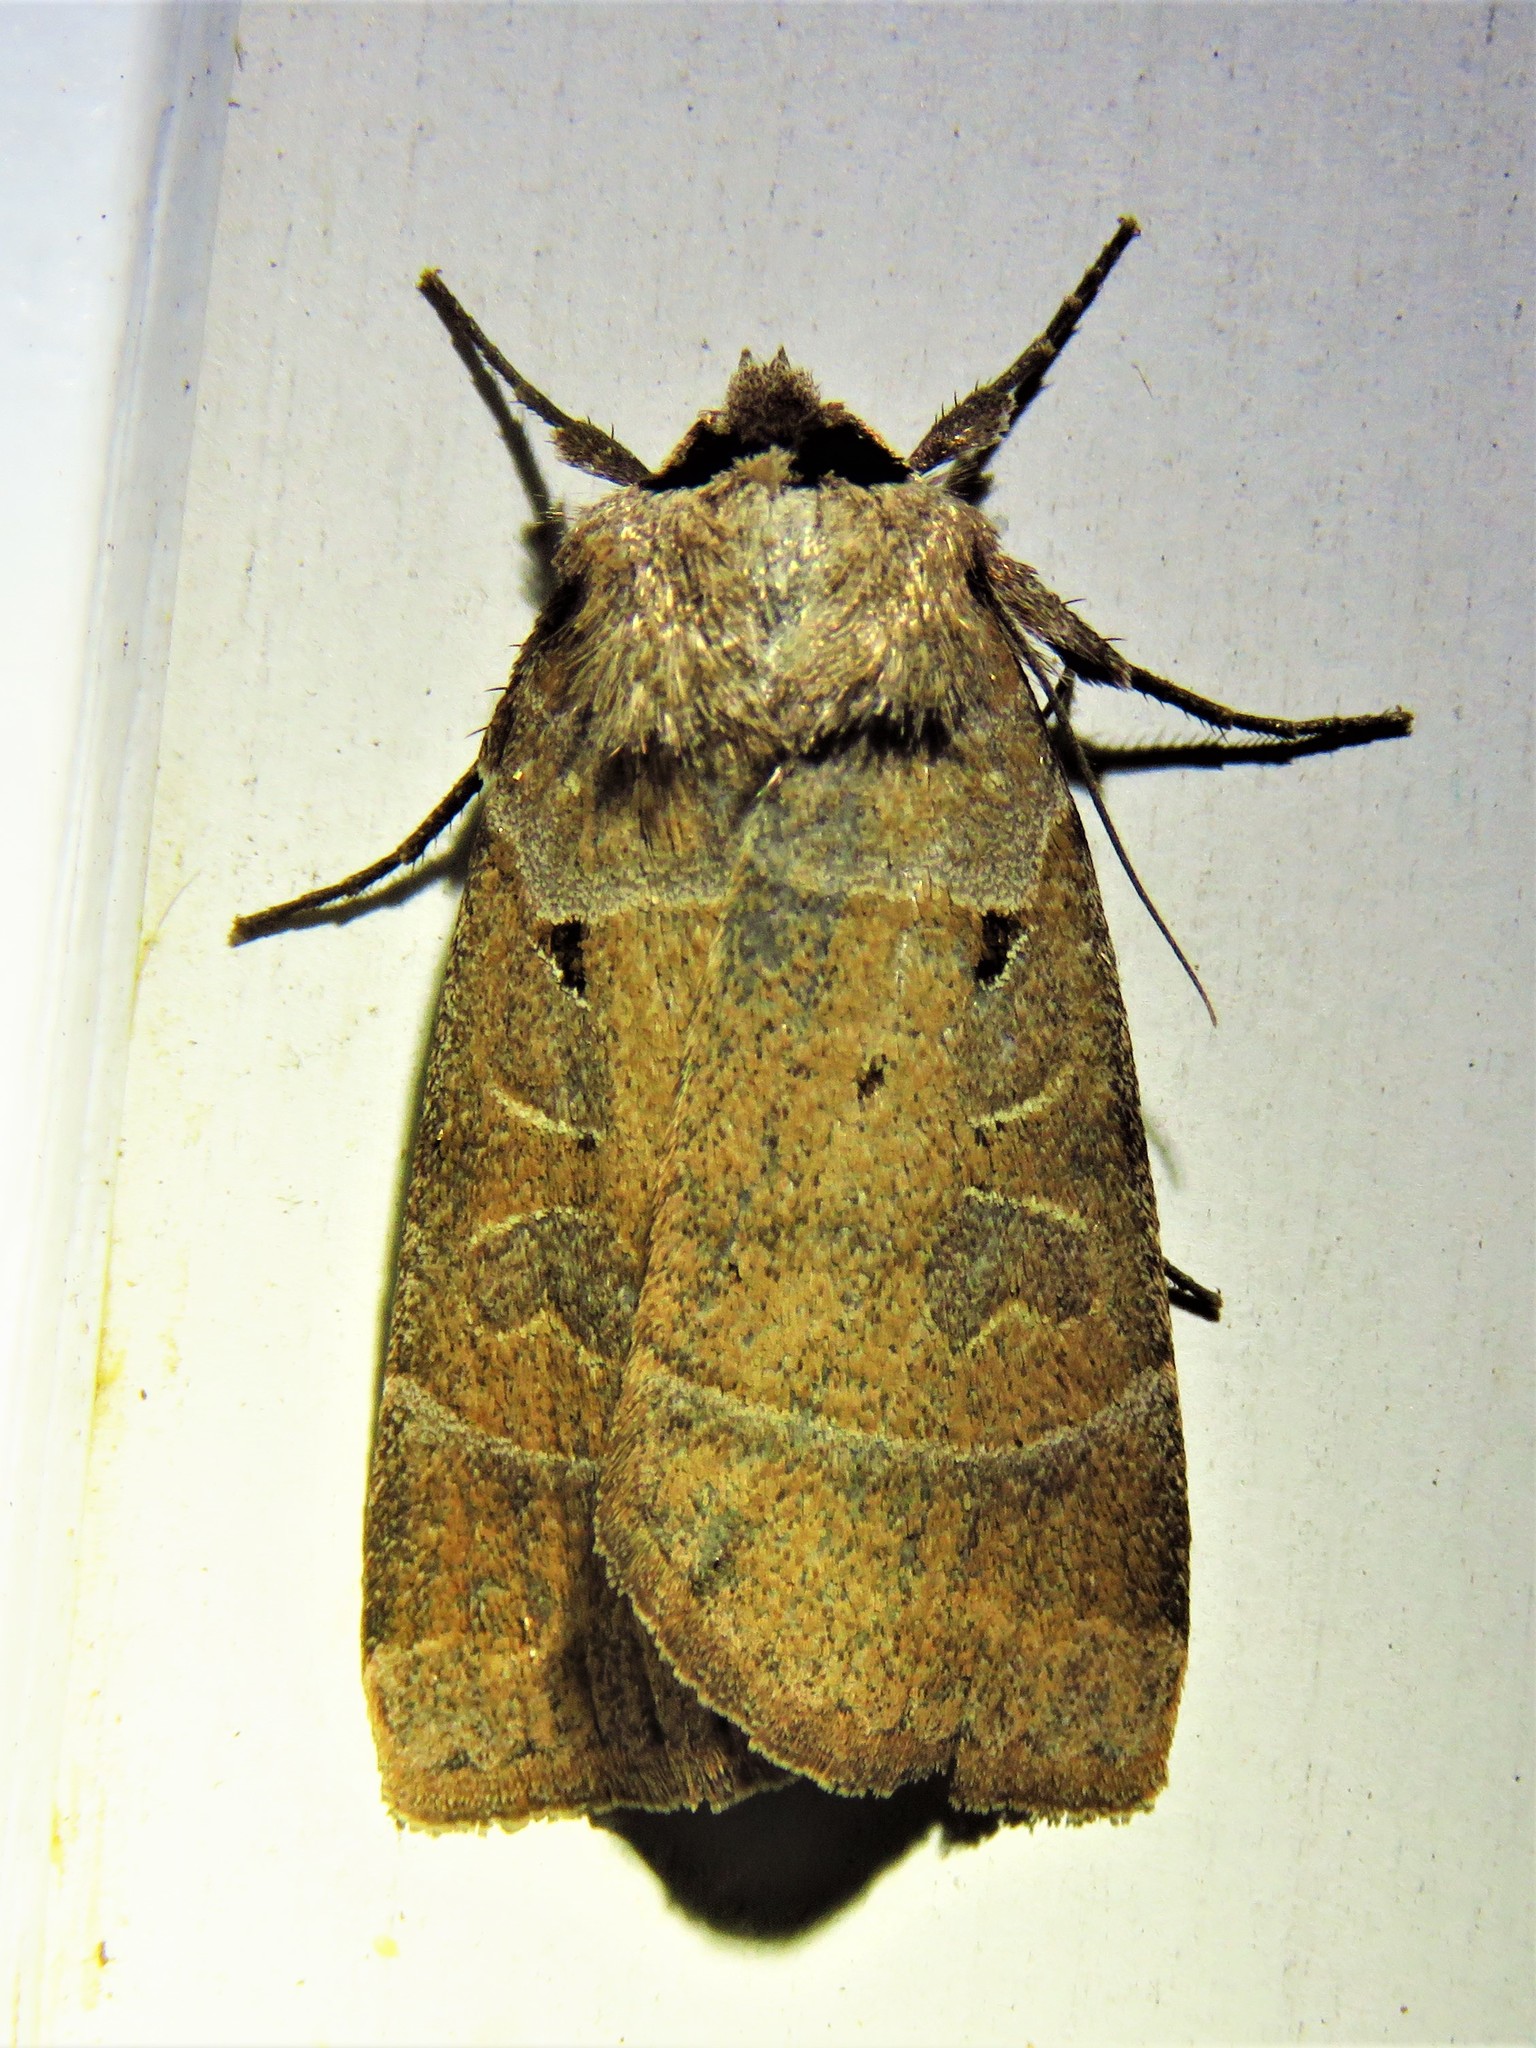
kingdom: Animalia
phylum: Arthropoda
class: Insecta
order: Lepidoptera
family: Noctuidae
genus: Agnorisma
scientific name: Agnorisma badinodis
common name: Pale-banded dart
